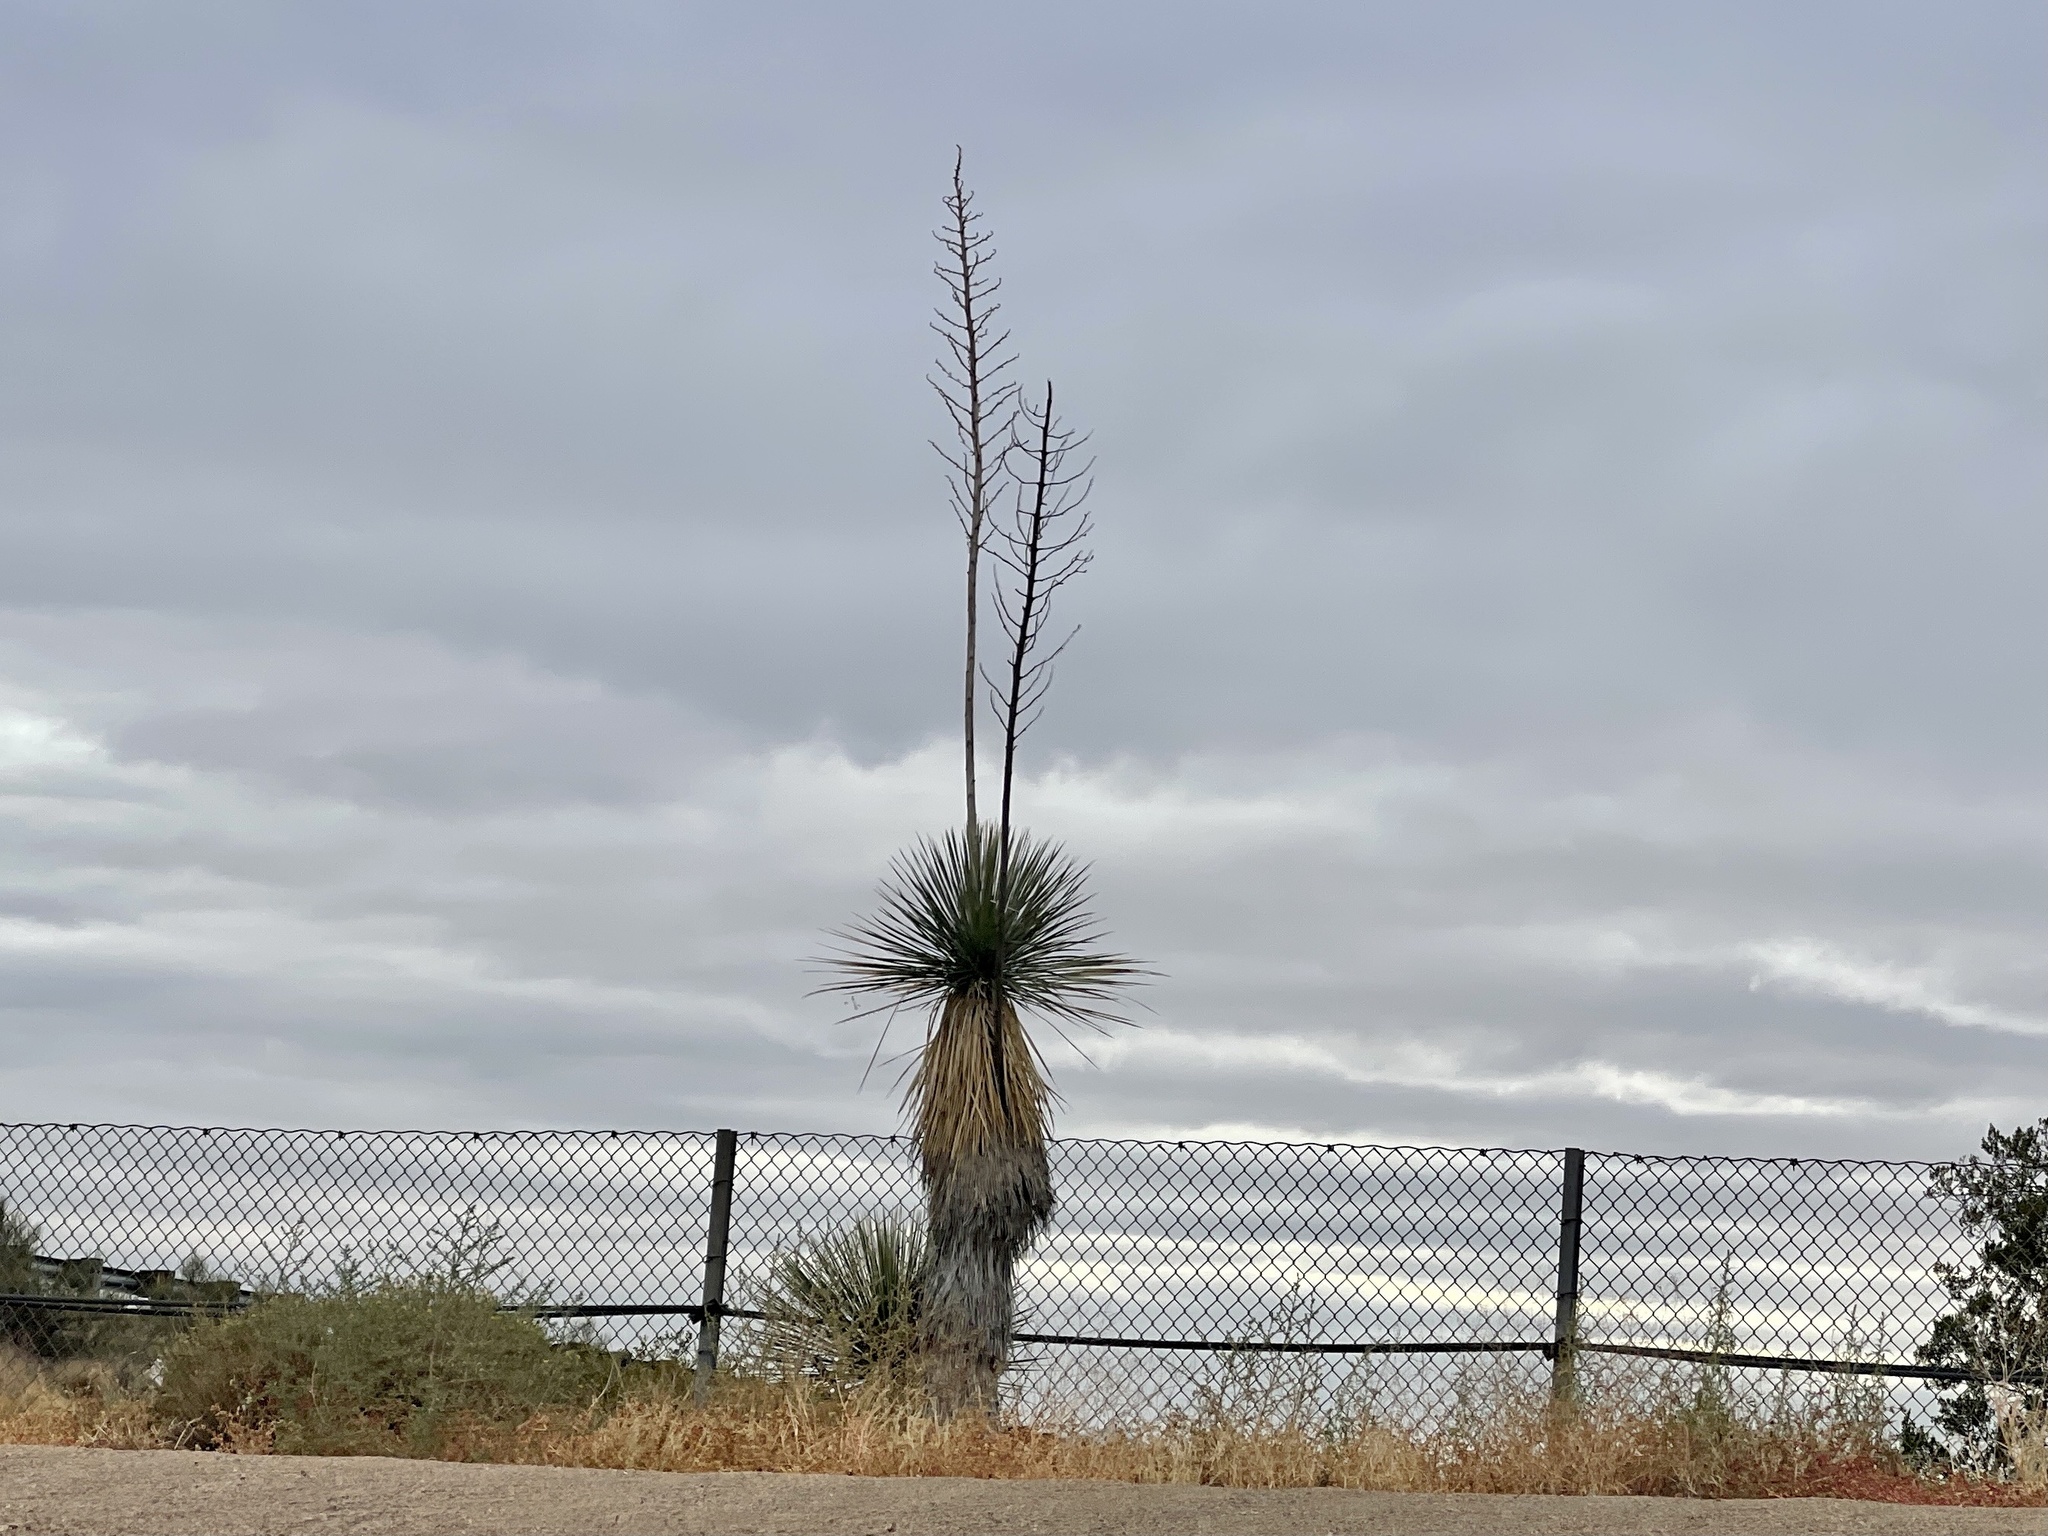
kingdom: Plantae
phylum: Tracheophyta
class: Liliopsida
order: Asparagales
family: Asparagaceae
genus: Yucca
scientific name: Yucca elata
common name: Palmella
